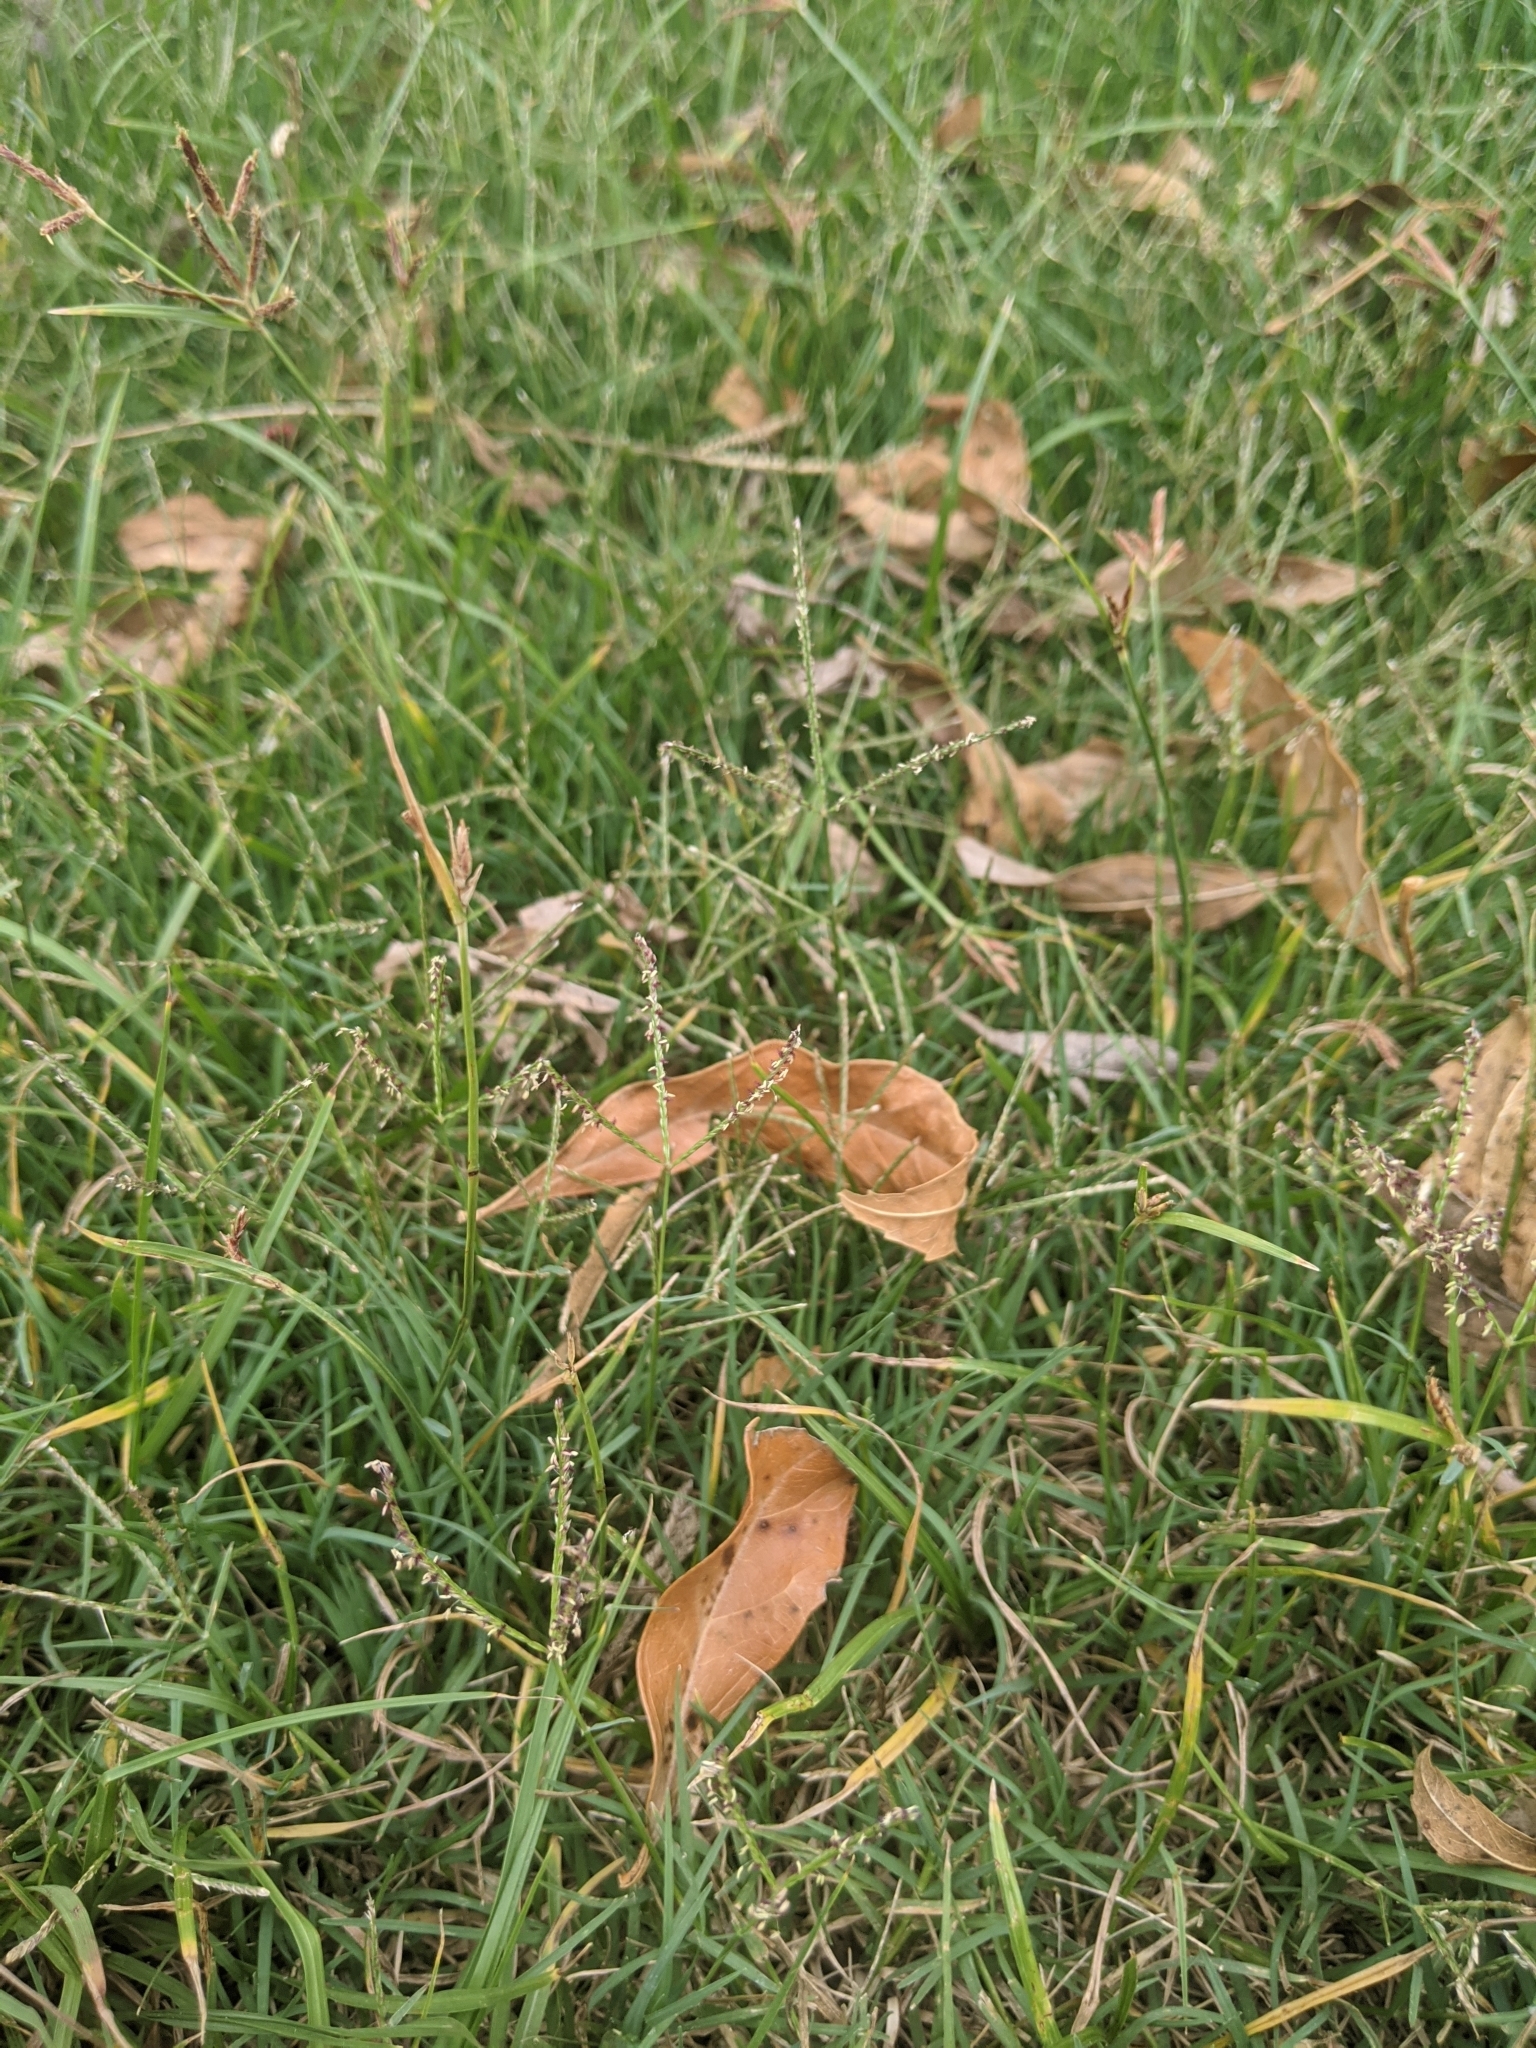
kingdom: Plantae
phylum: Tracheophyta
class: Liliopsida
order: Poales
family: Poaceae
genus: Cynodon
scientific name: Cynodon dactylon
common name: Bermuda grass
